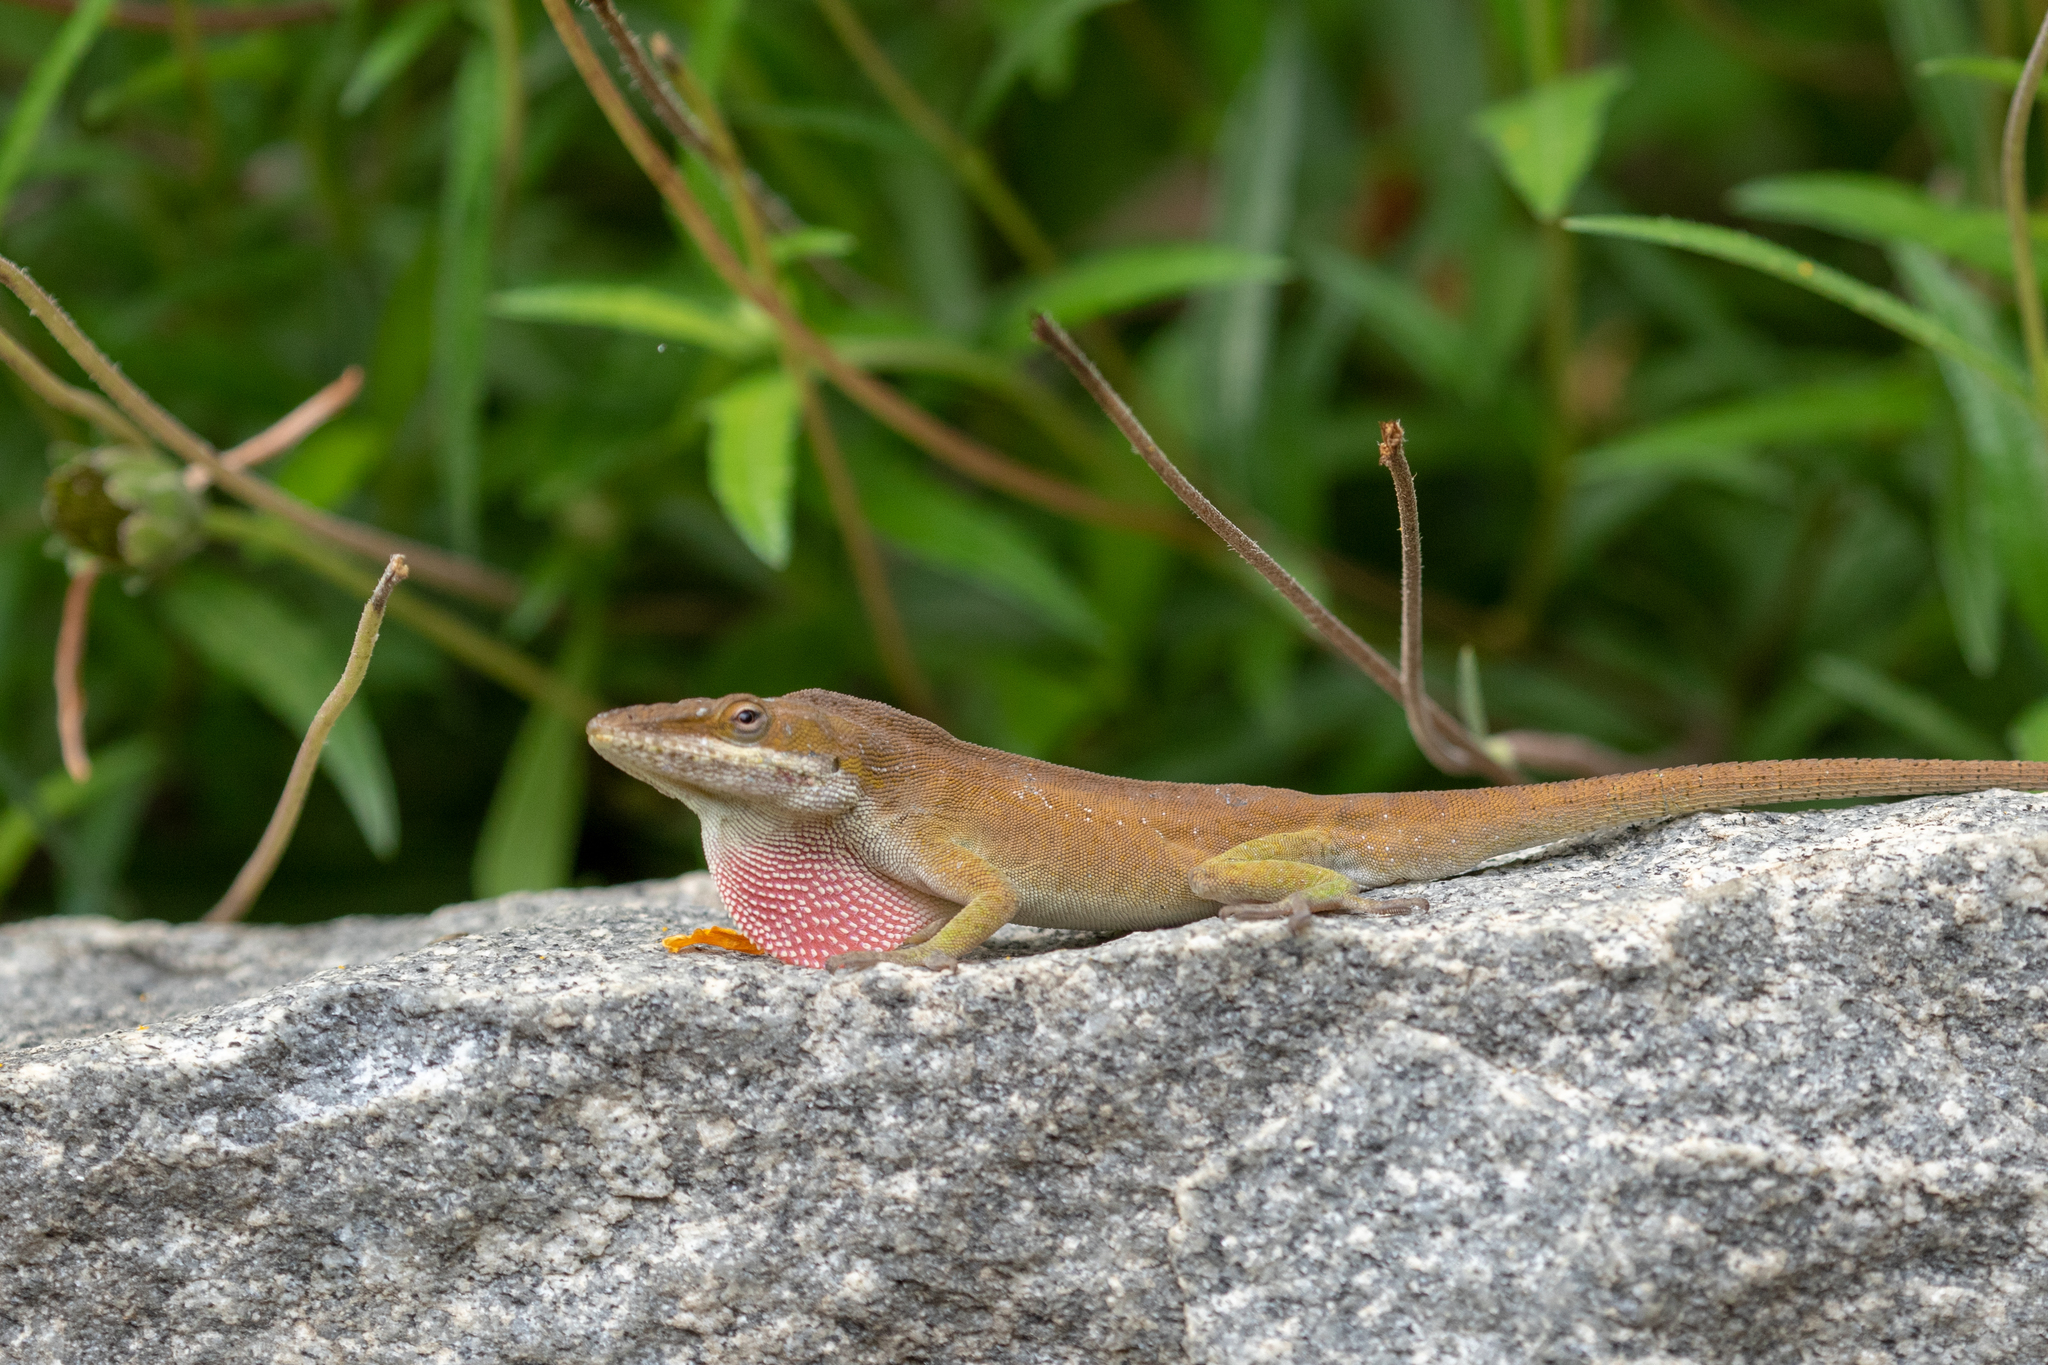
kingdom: Animalia
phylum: Chordata
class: Squamata
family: Dactyloidae
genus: Anolis
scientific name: Anolis carolinensis
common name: Green anole
